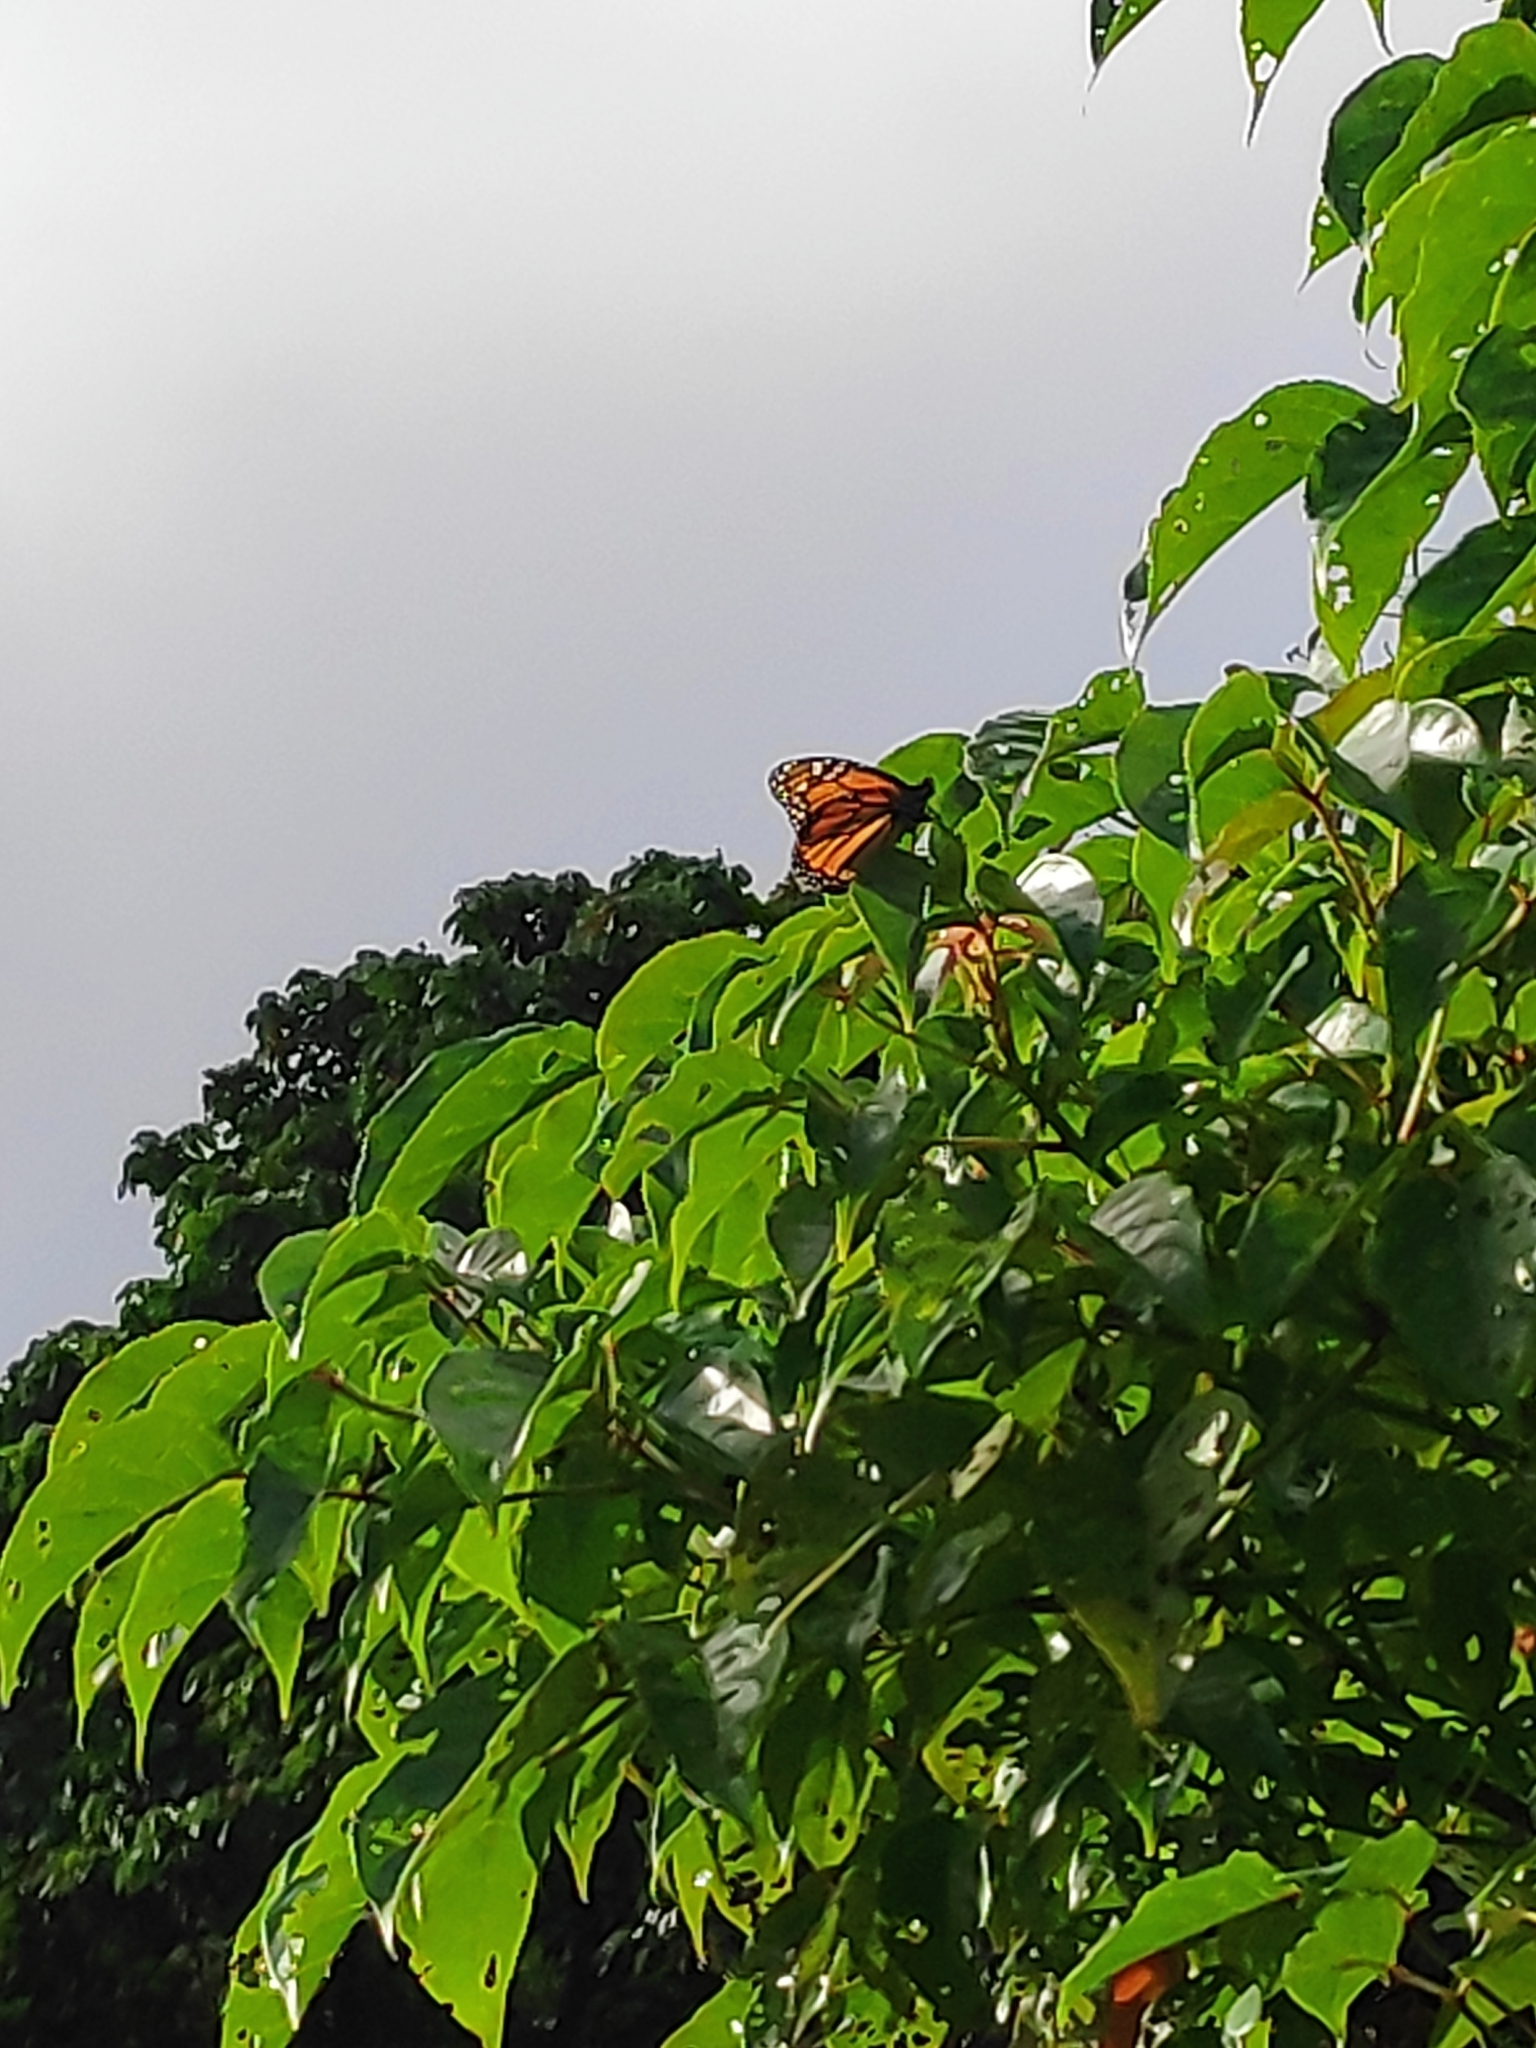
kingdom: Animalia
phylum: Arthropoda
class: Insecta
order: Lepidoptera
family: Nymphalidae
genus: Danaus
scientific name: Danaus plexippus
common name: Monarch
